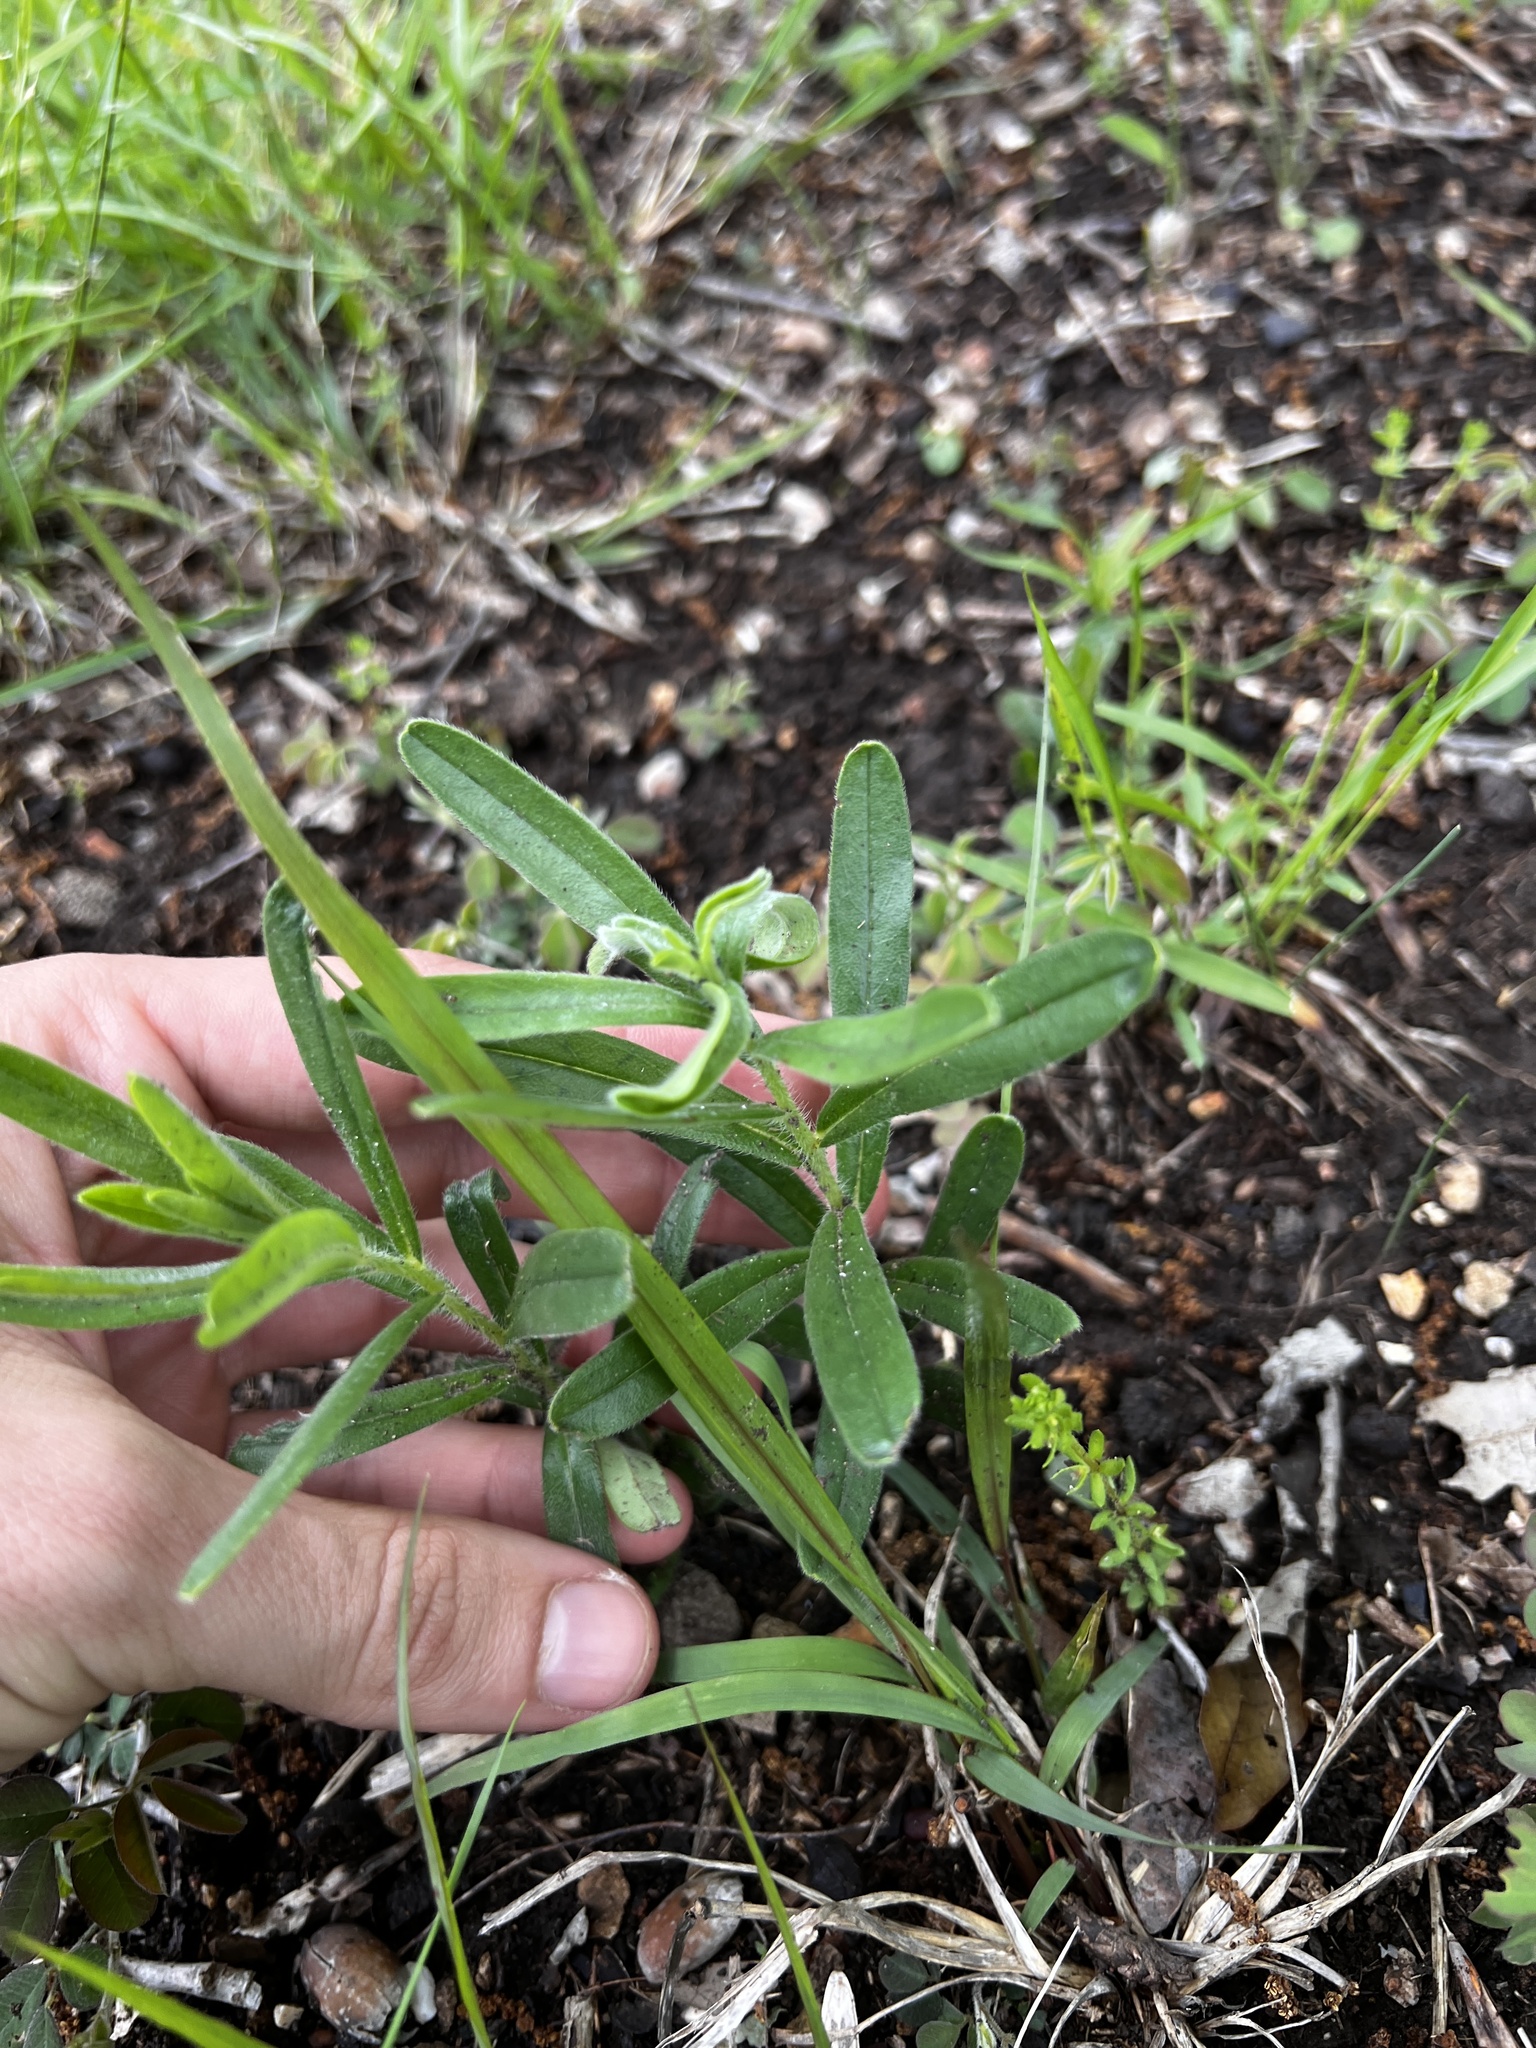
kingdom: Plantae
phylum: Tracheophyta
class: Magnoliopsida
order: Boraginales
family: Boraginaceae
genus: Lithospermum
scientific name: Lithospermum canescens
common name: Hoary puccoon
